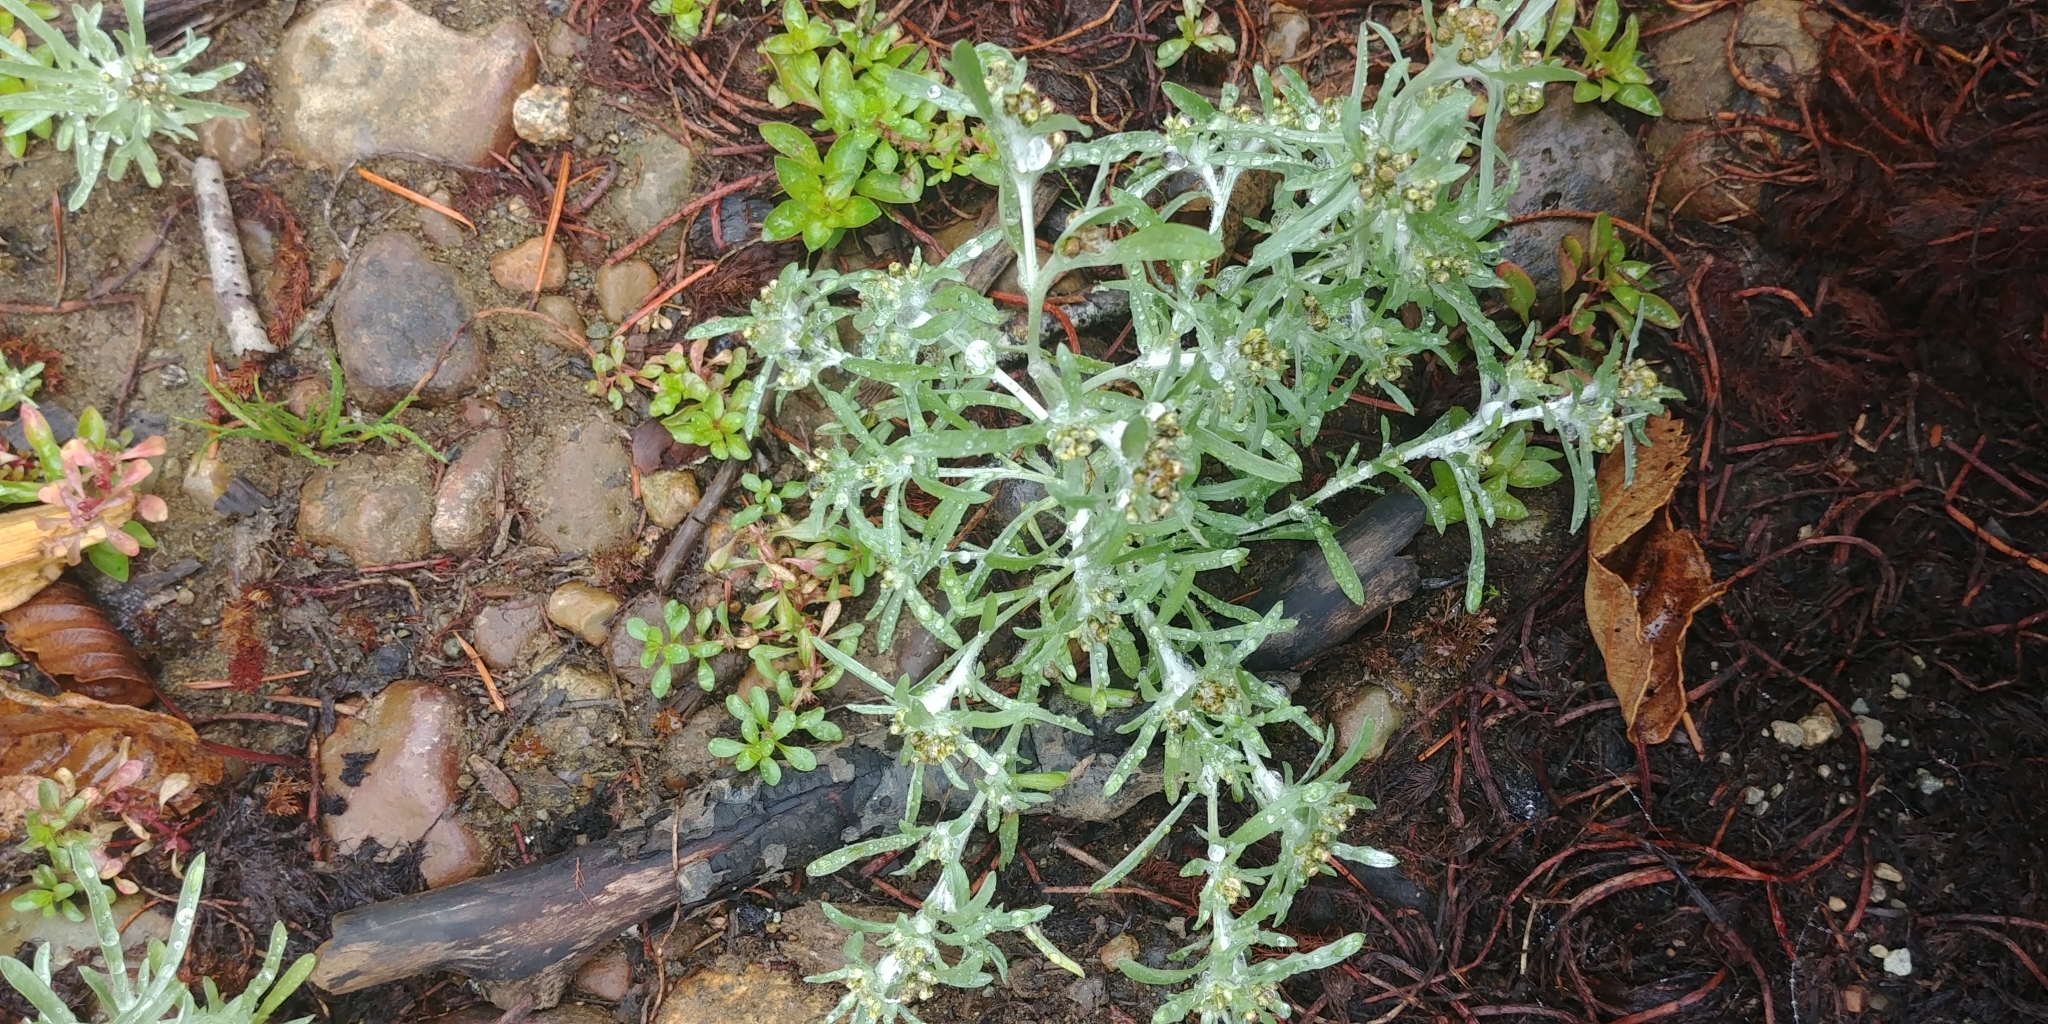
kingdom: Plantae
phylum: Tracheophyta
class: Magnoliopsida
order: Asterales
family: Asteraceae
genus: Gnaphalium
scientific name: Gnaphalium uliginosum
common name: Marsh cudweed
